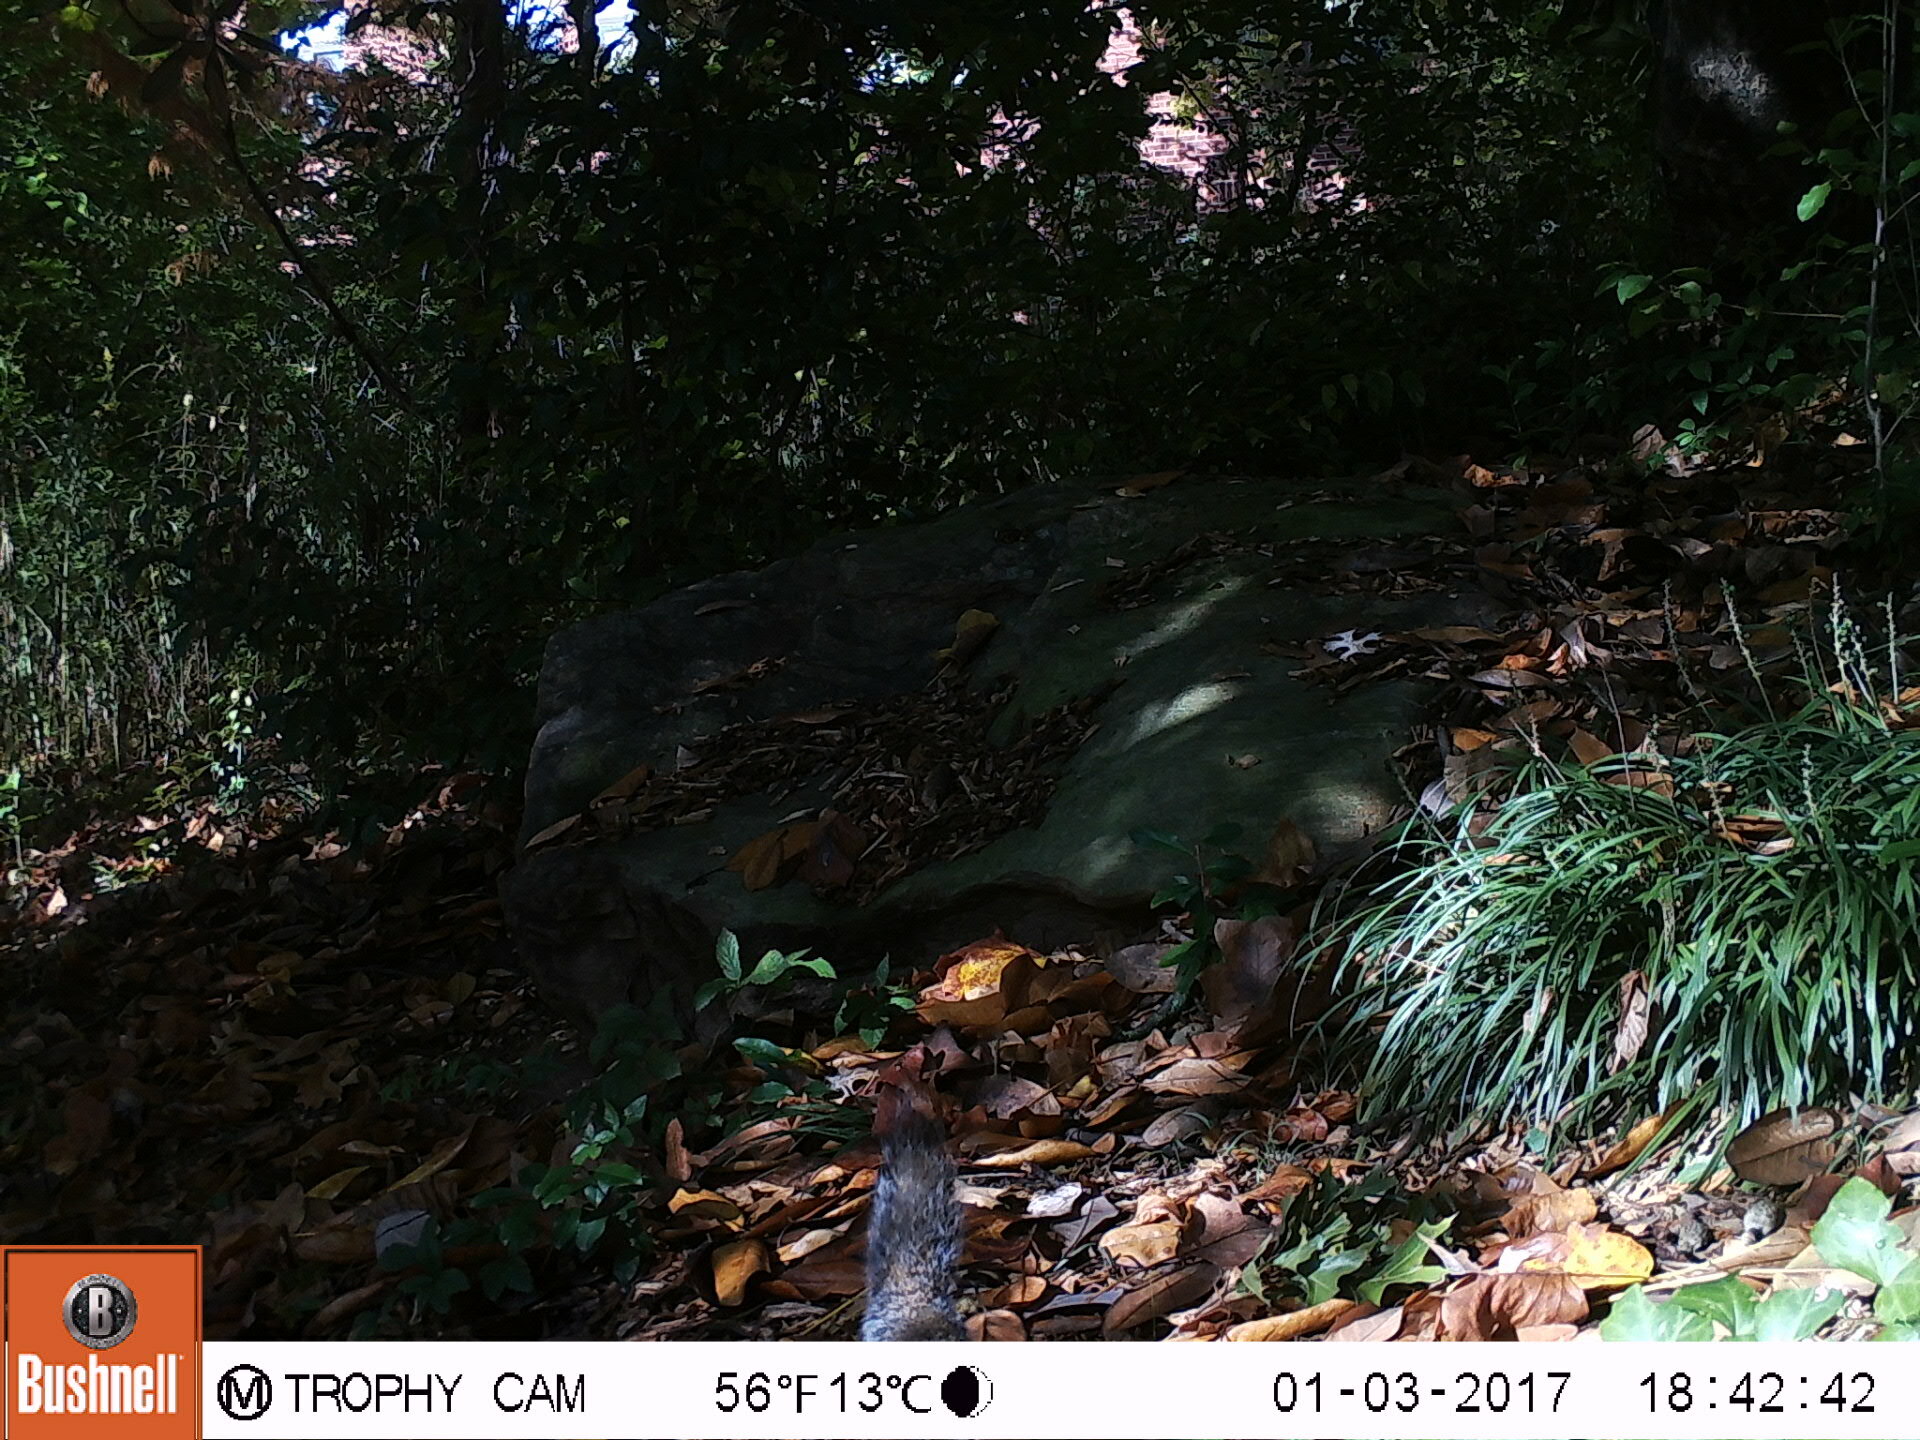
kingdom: Animalia
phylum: Chordata
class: Mammalia
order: Rodentia
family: Sciuridae
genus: Sciurus
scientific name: Sciurus carolinensis
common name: Eastern gray squirrel
